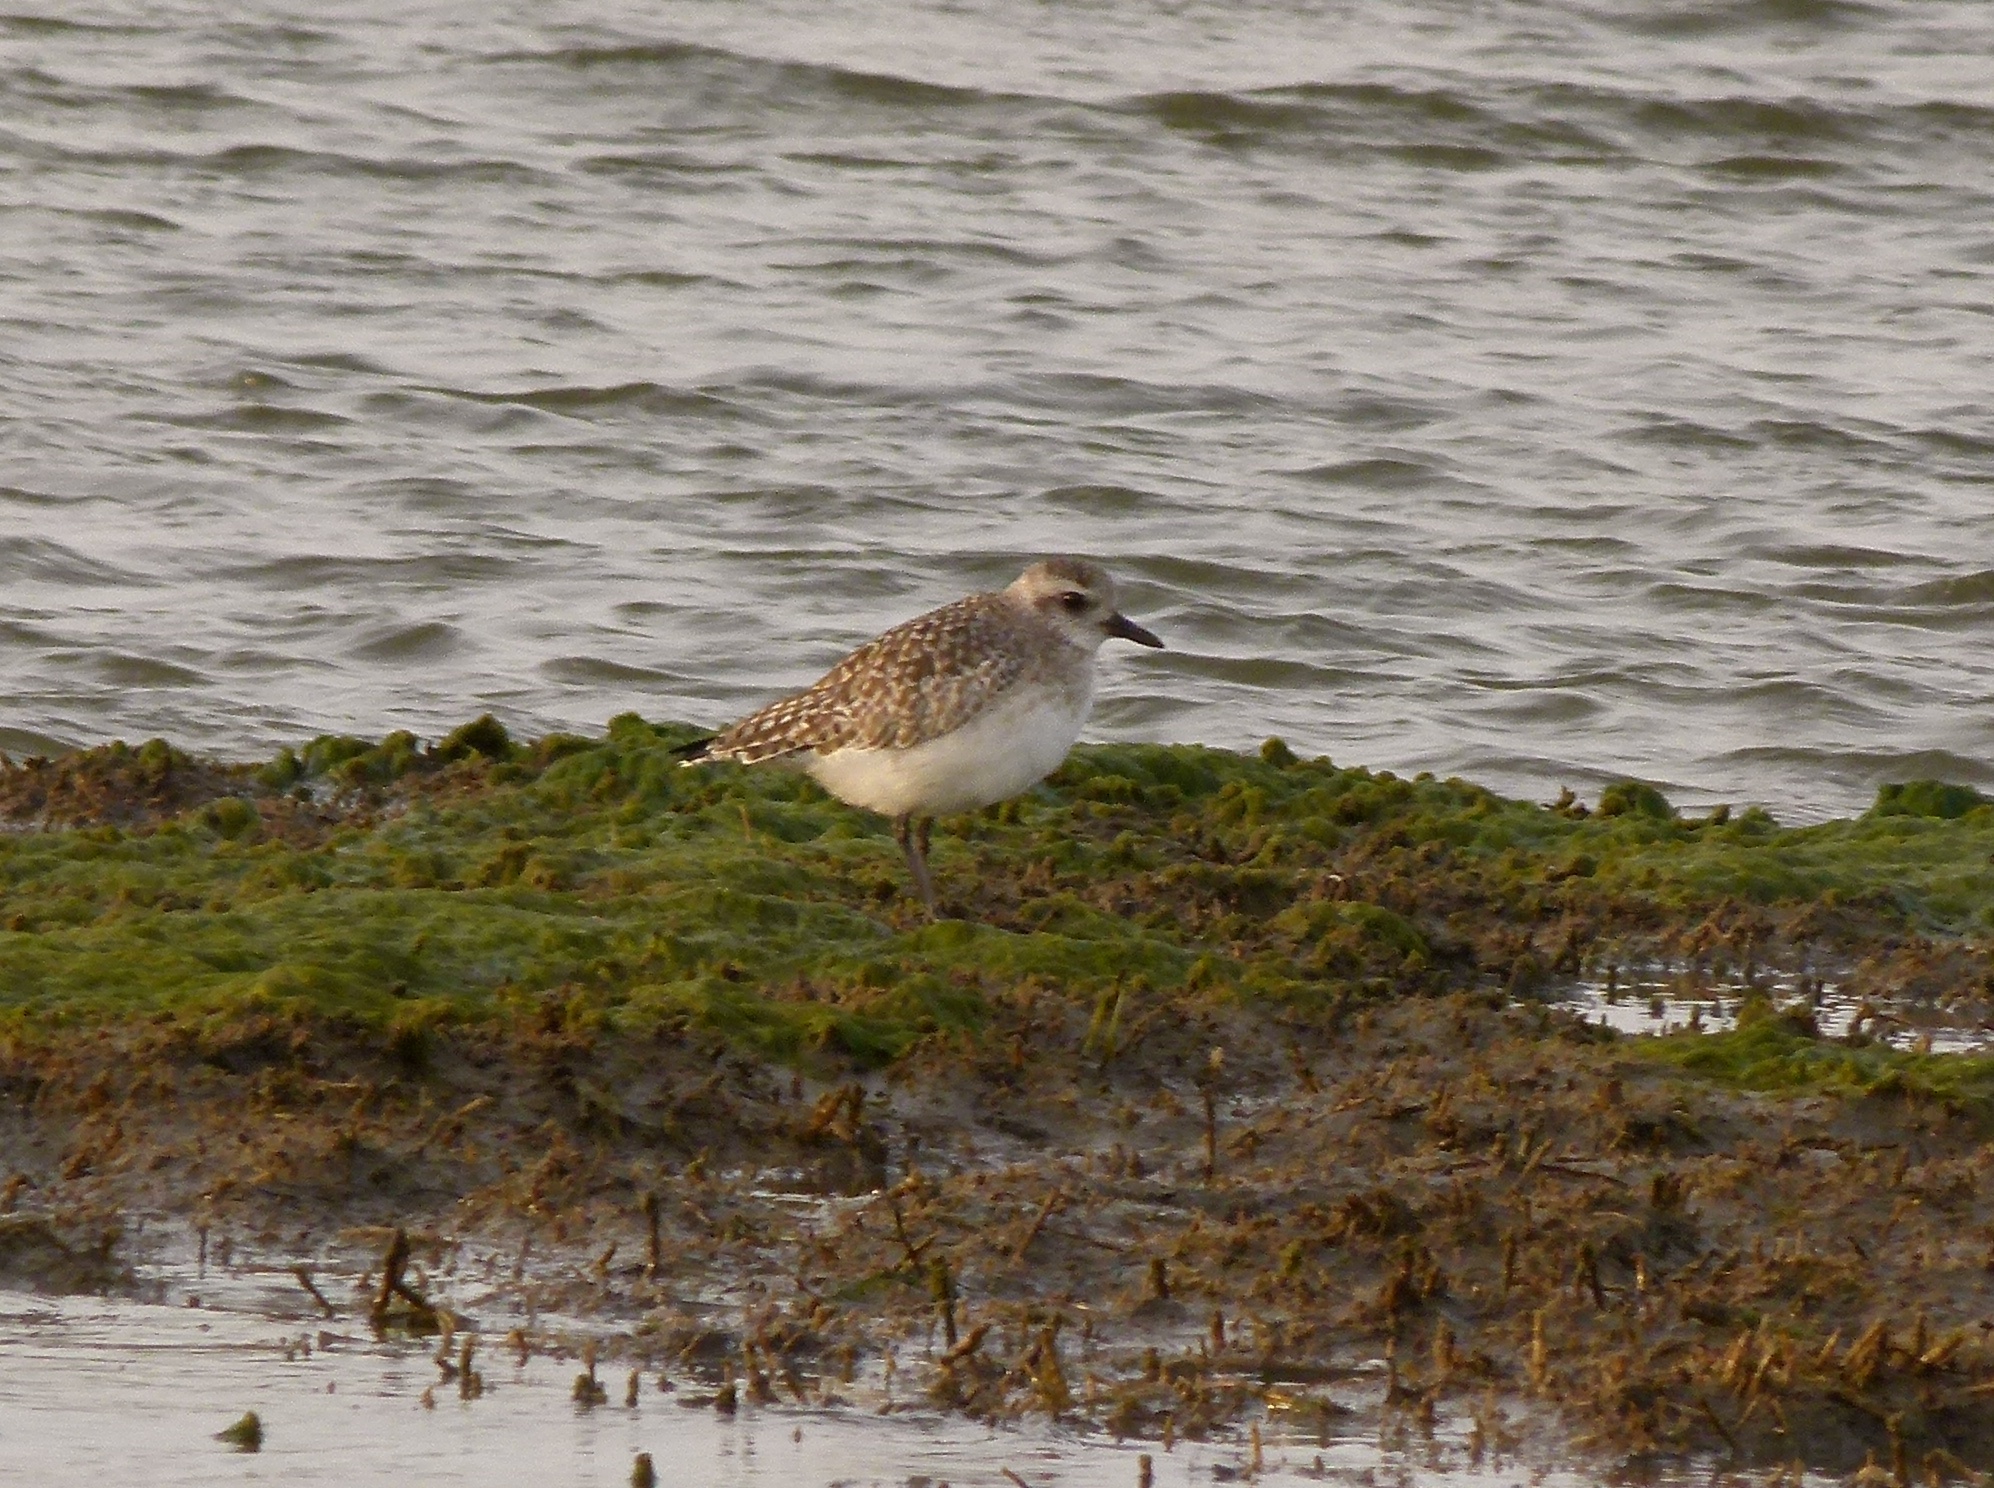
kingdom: Animalia
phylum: Chordata
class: Aves
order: Charadriiformes
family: Charadriidae
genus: Pluvialis
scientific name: Pluvialis squatarola
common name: Grey plover
